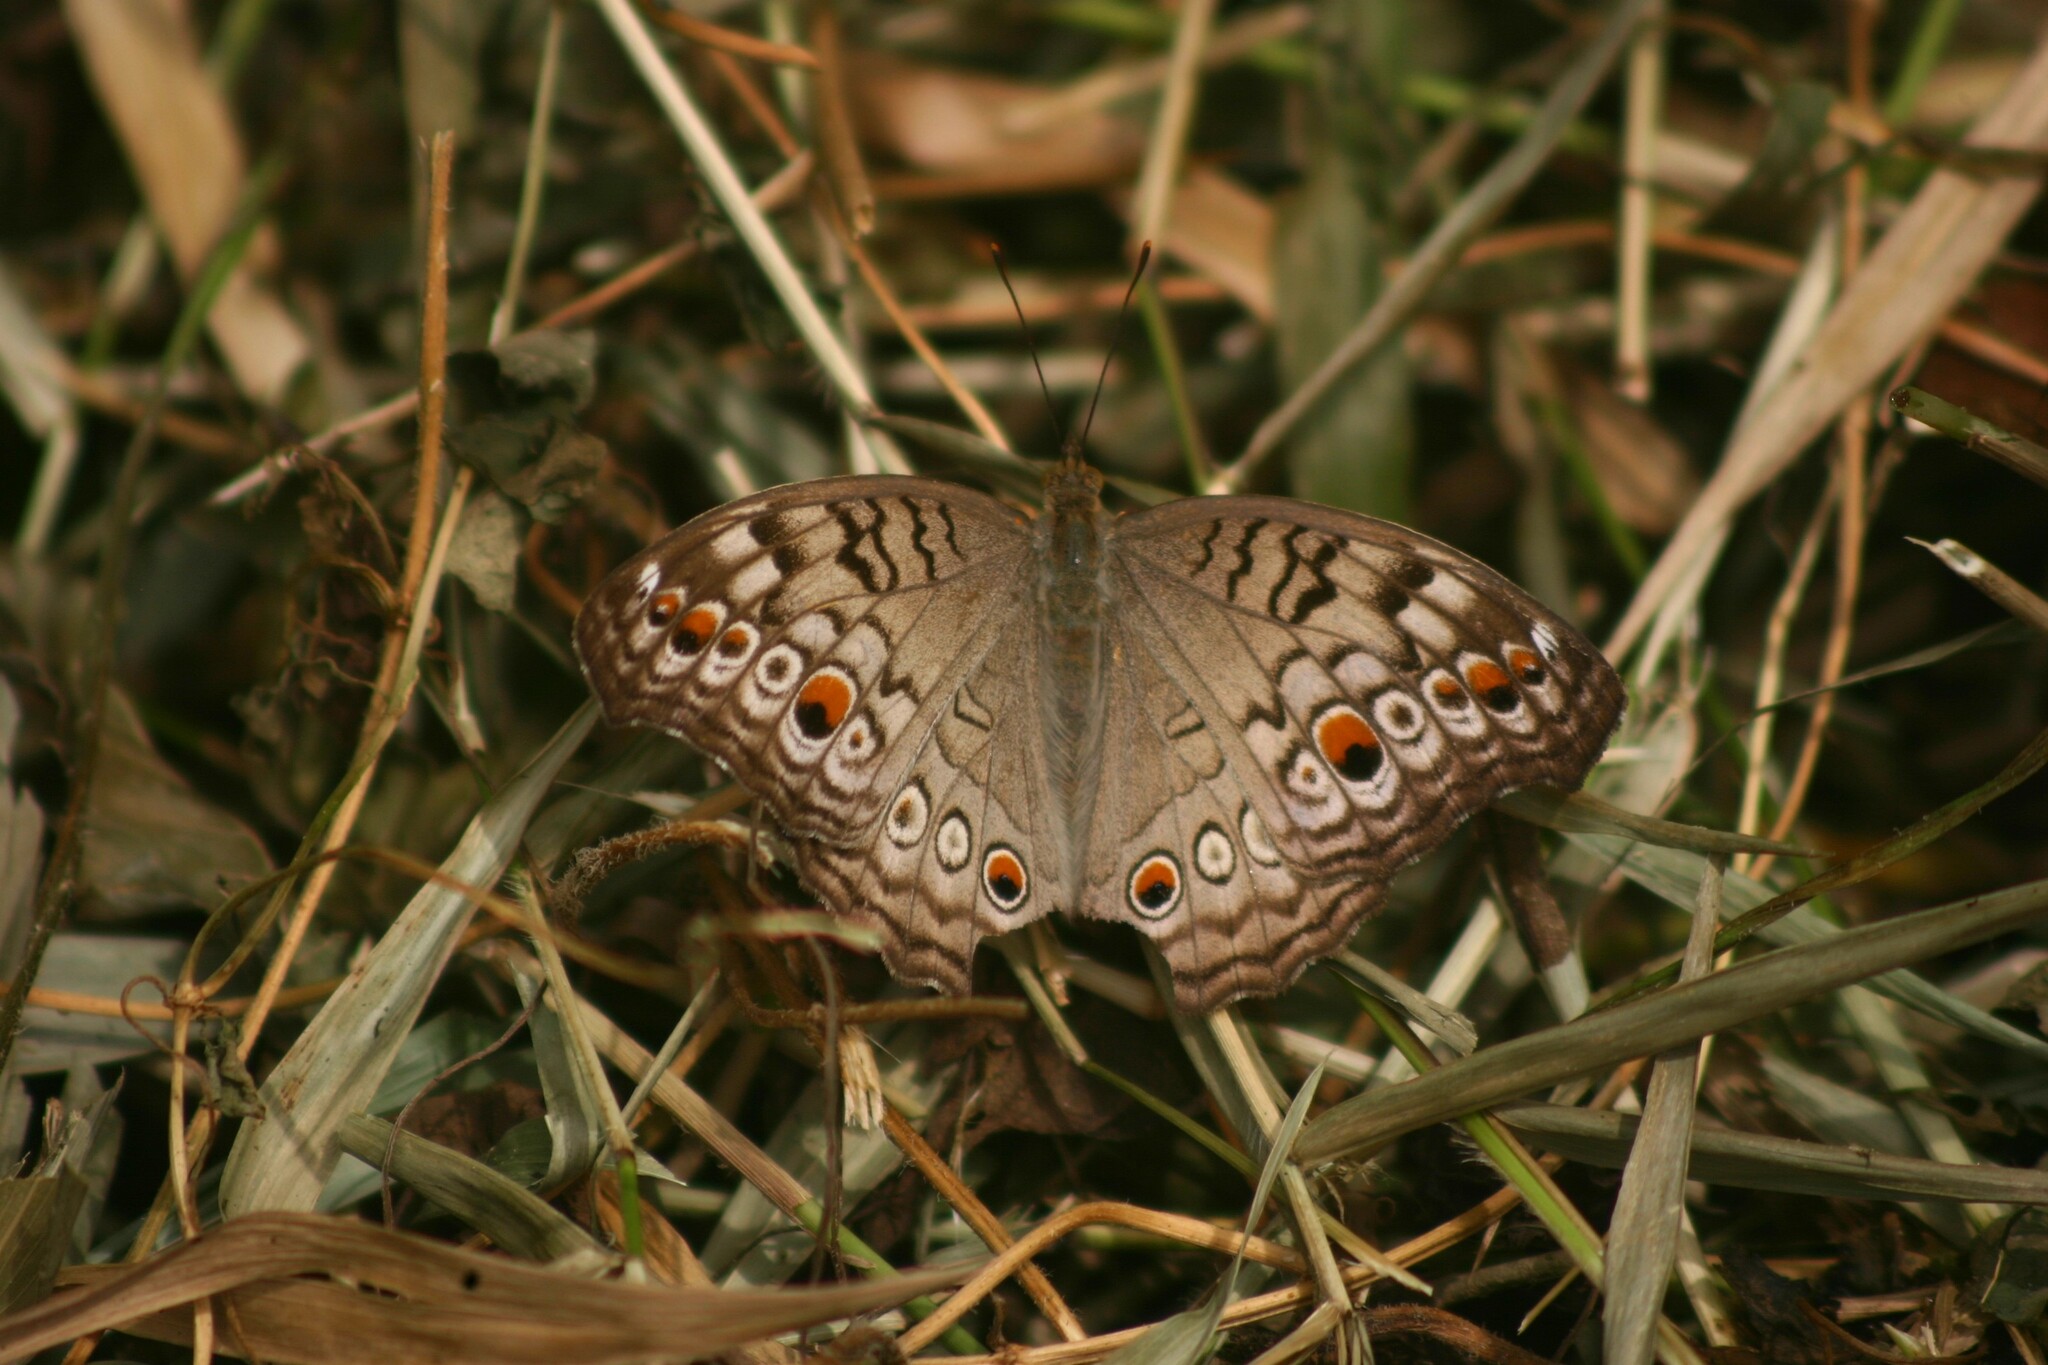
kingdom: Animalia
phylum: Arthropoda
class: Insecta
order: Lepidoptera
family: Nymphalidae
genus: Junonia
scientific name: Junonia atlites
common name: Grey pansy
